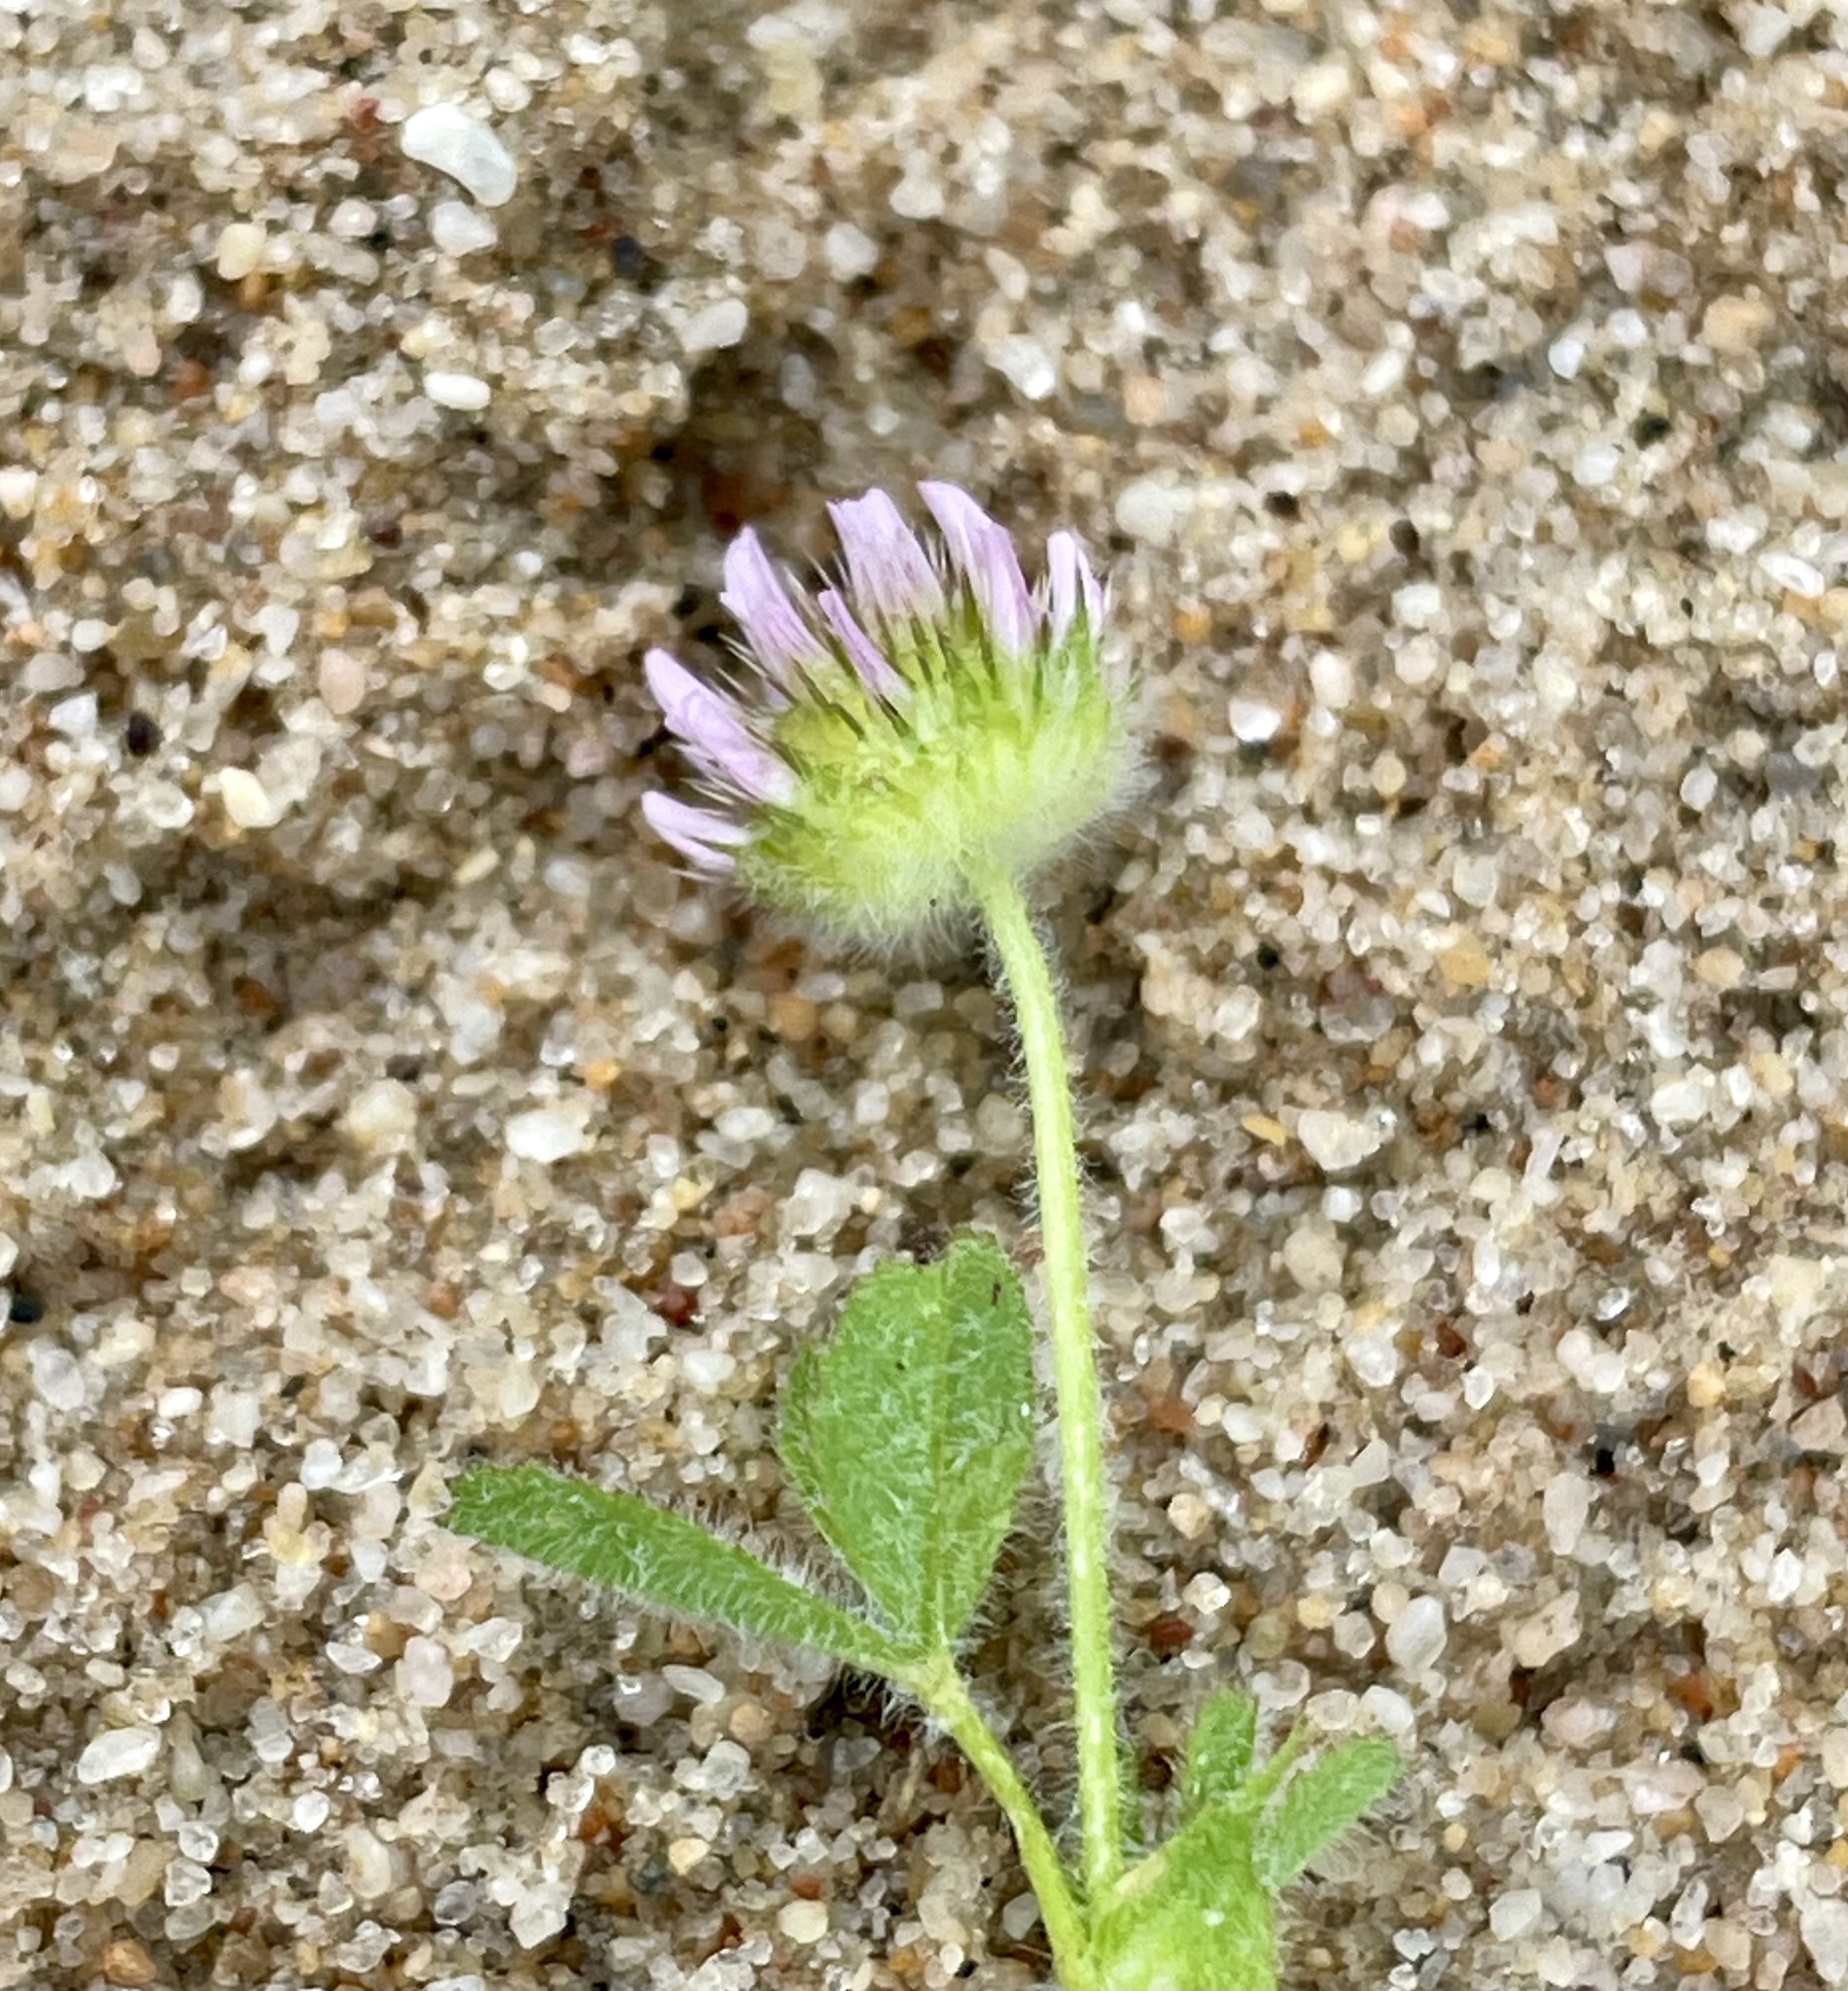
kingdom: Plantae
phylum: Tracheophyta
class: Magnoliopsida
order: Fabales
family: Fabaceae
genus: Trifolium
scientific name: Trifolium microcephalum
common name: Maiden clover
